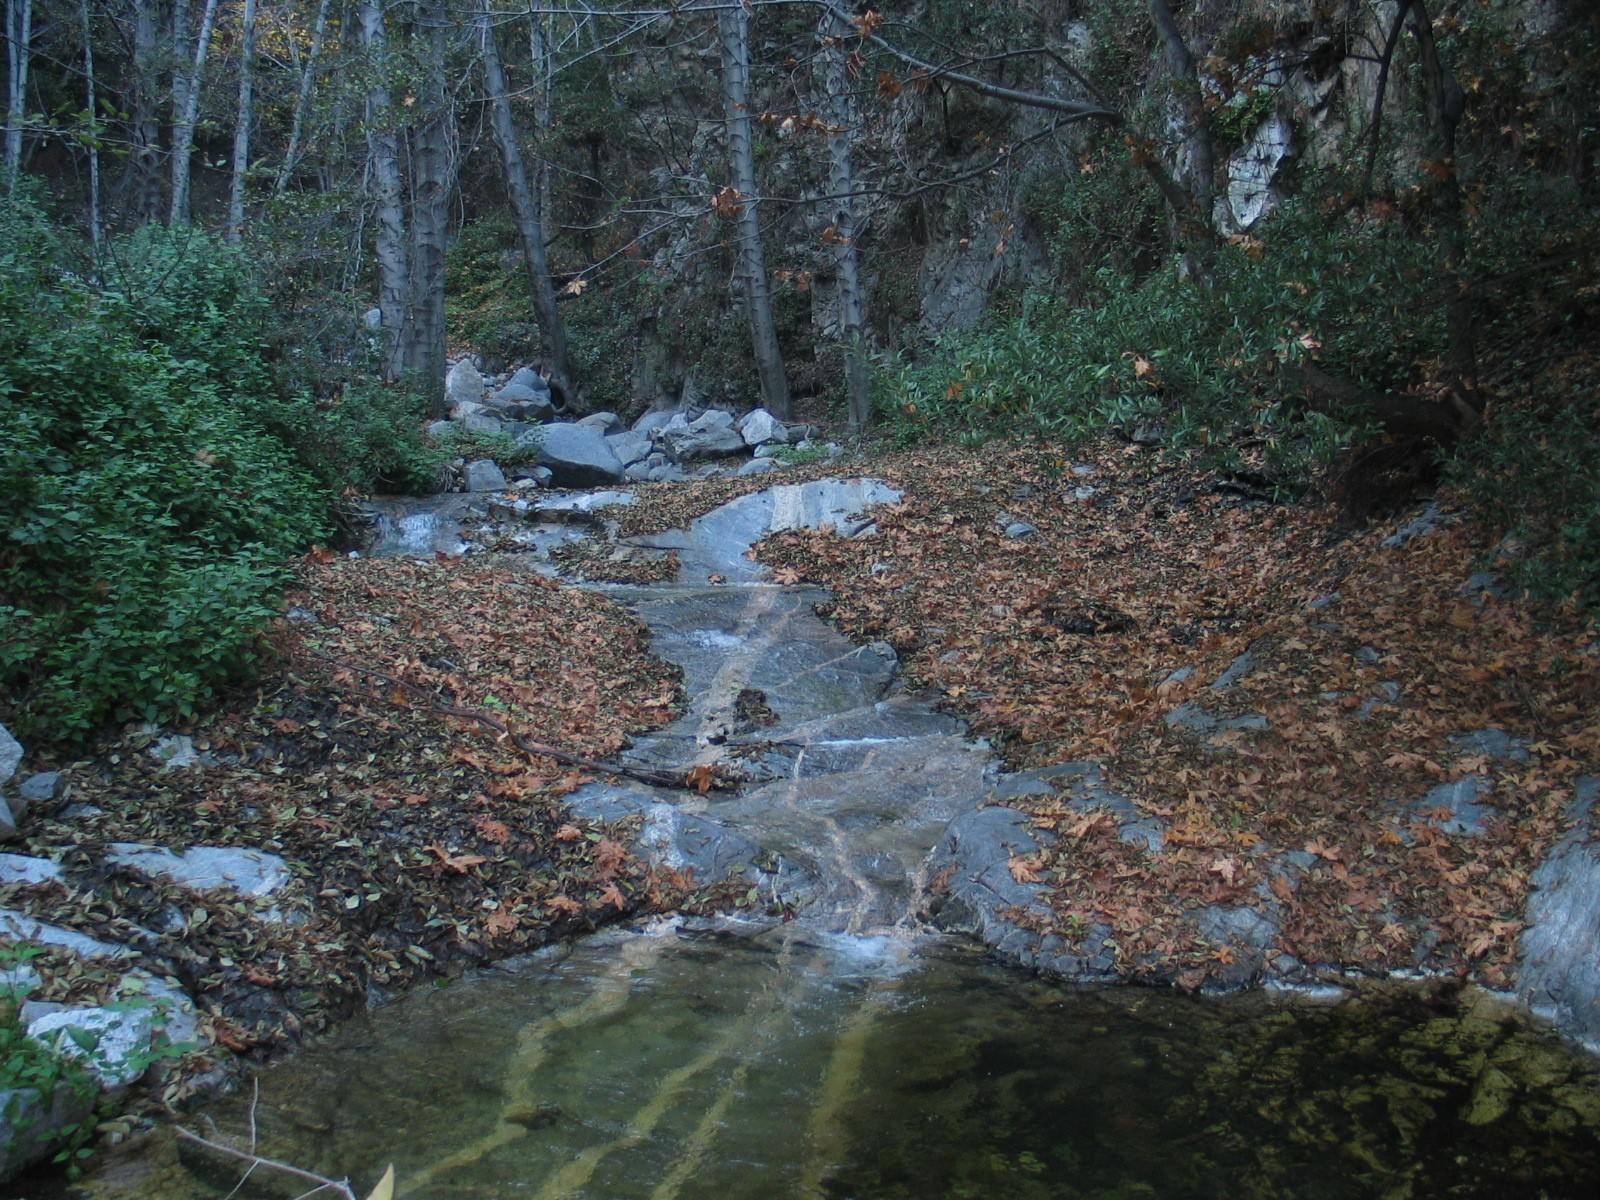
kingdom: Plantae
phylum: Tracheophyta
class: Magnoliopsida
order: Fagales
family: Betulaceae
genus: Alnus
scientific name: Alnus rhombifolia
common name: California alder
